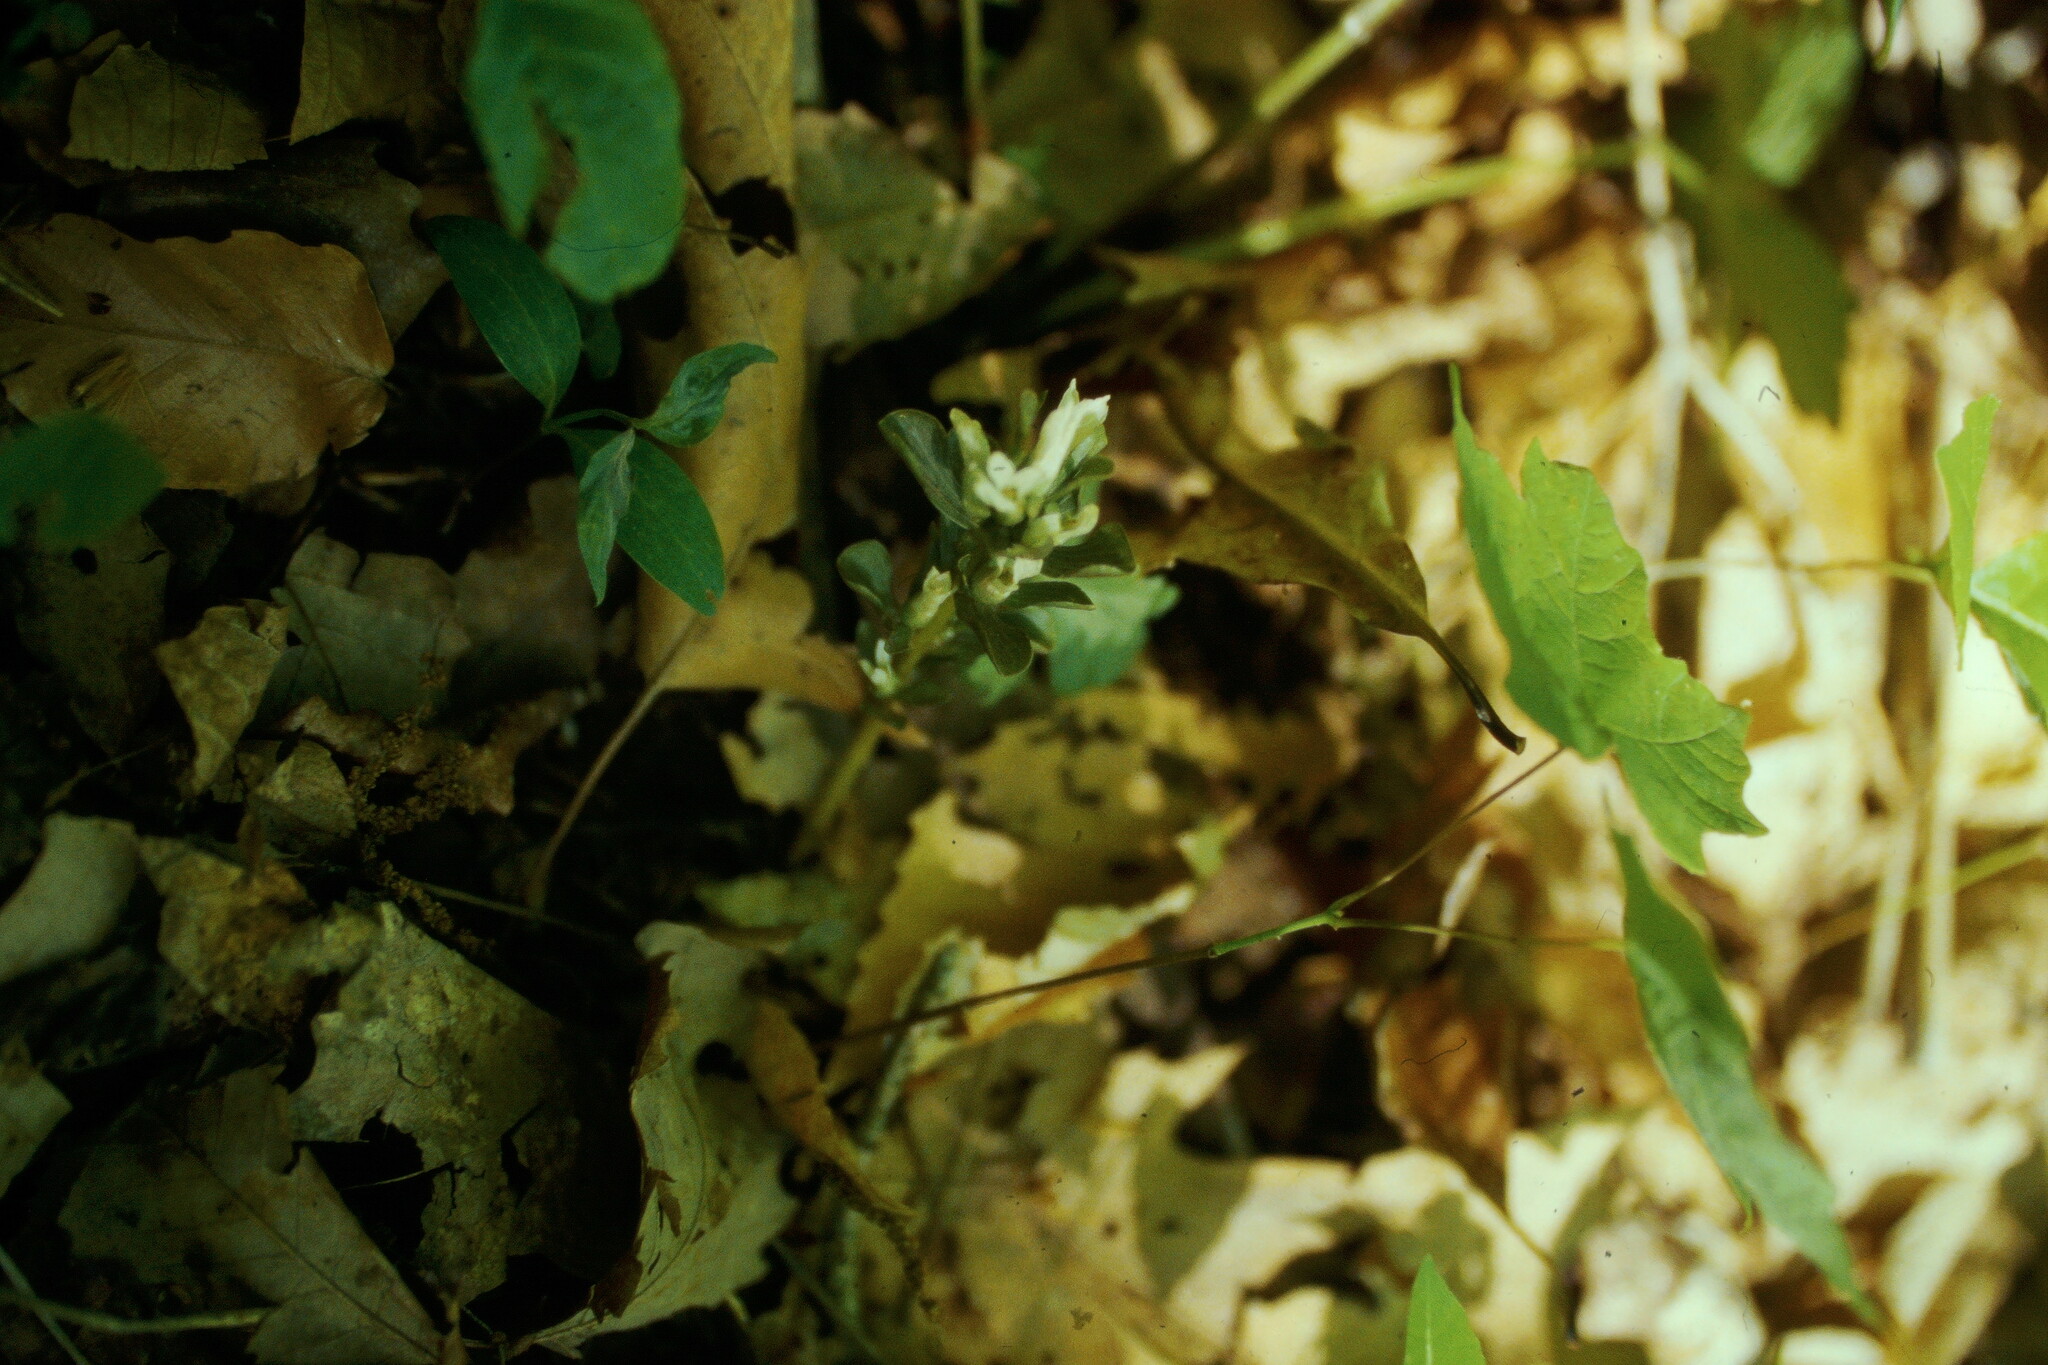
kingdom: Plantae
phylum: Tracheophyta
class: Magnoliopsida
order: Gentianales
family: Gentianaceae
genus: Obolaria
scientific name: Obolaria virginica
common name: Pennywort
